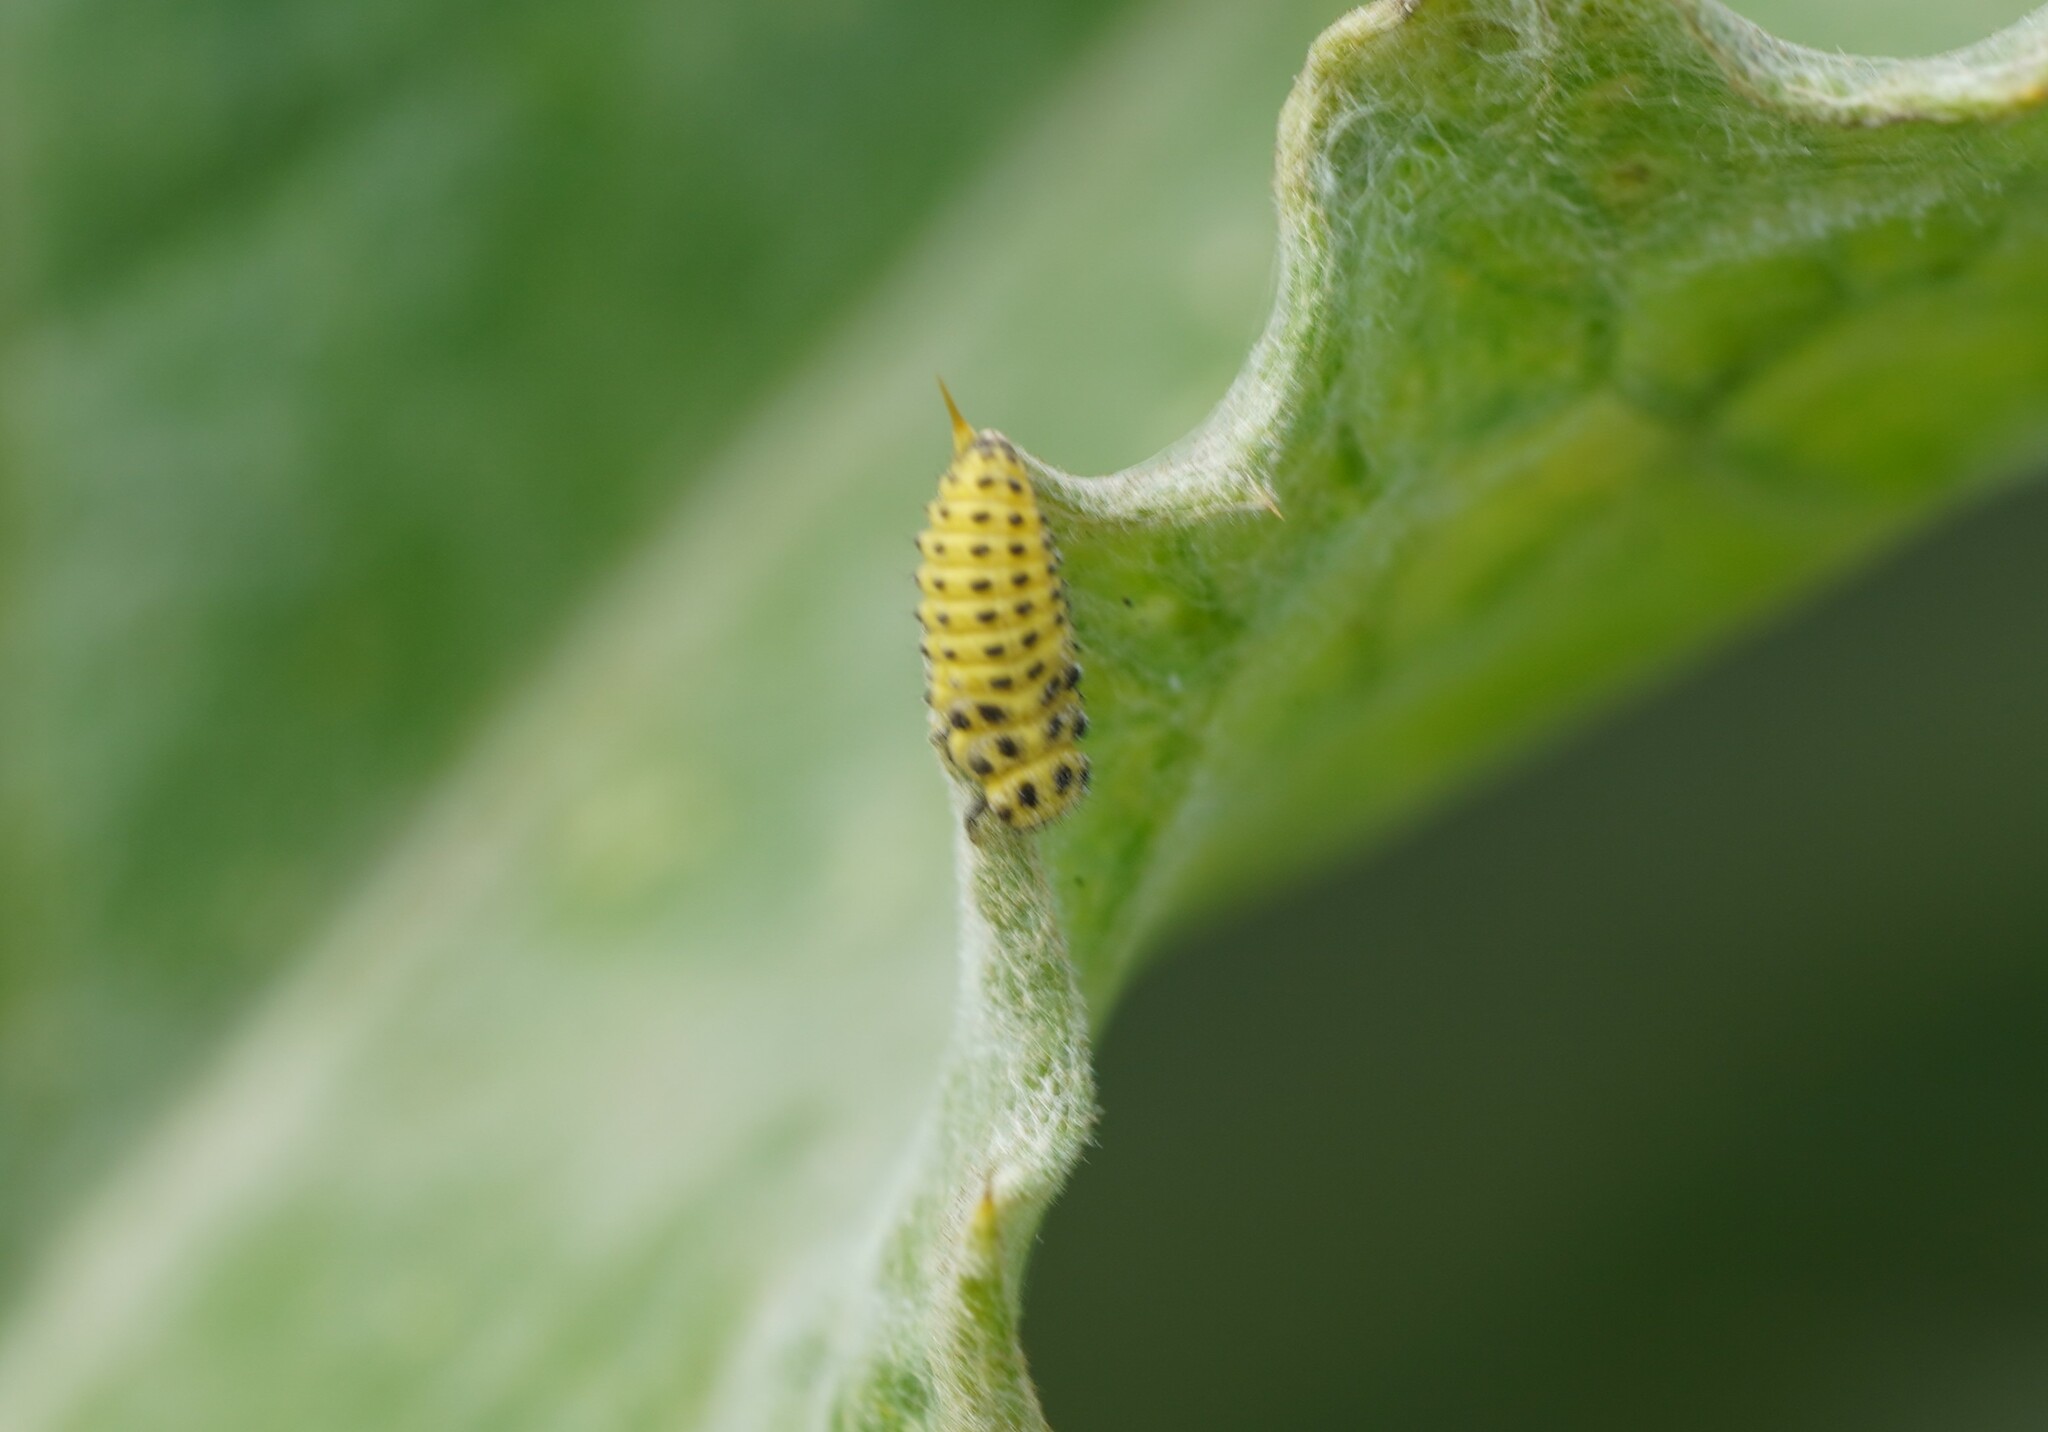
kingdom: Animalia
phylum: Arthropoda
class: Insecta
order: Coleoptera
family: Coccinellidae
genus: Psyllobora
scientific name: Psyllobora vigintiduopunctata
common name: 22-spot ladybird
